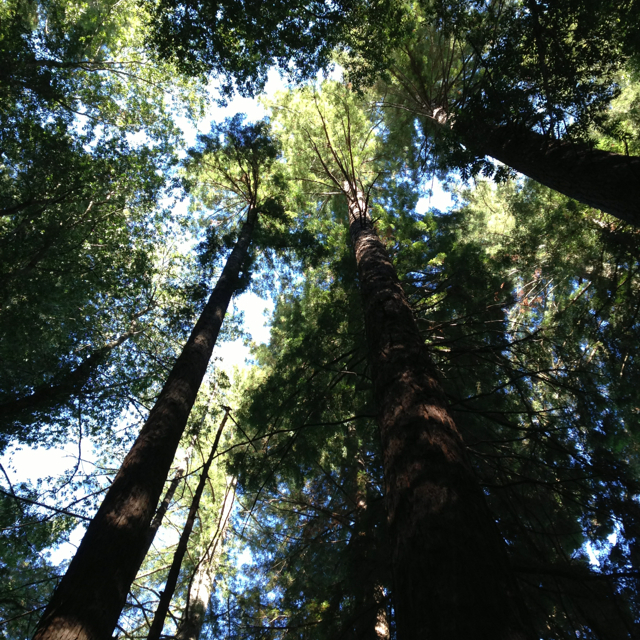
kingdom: Plantae
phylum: Tracheophyta
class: Pinopsida
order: Pinales
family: Cupressaceae
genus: Sequoia
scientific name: Sequoia sempervirens
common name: Coast redwood
